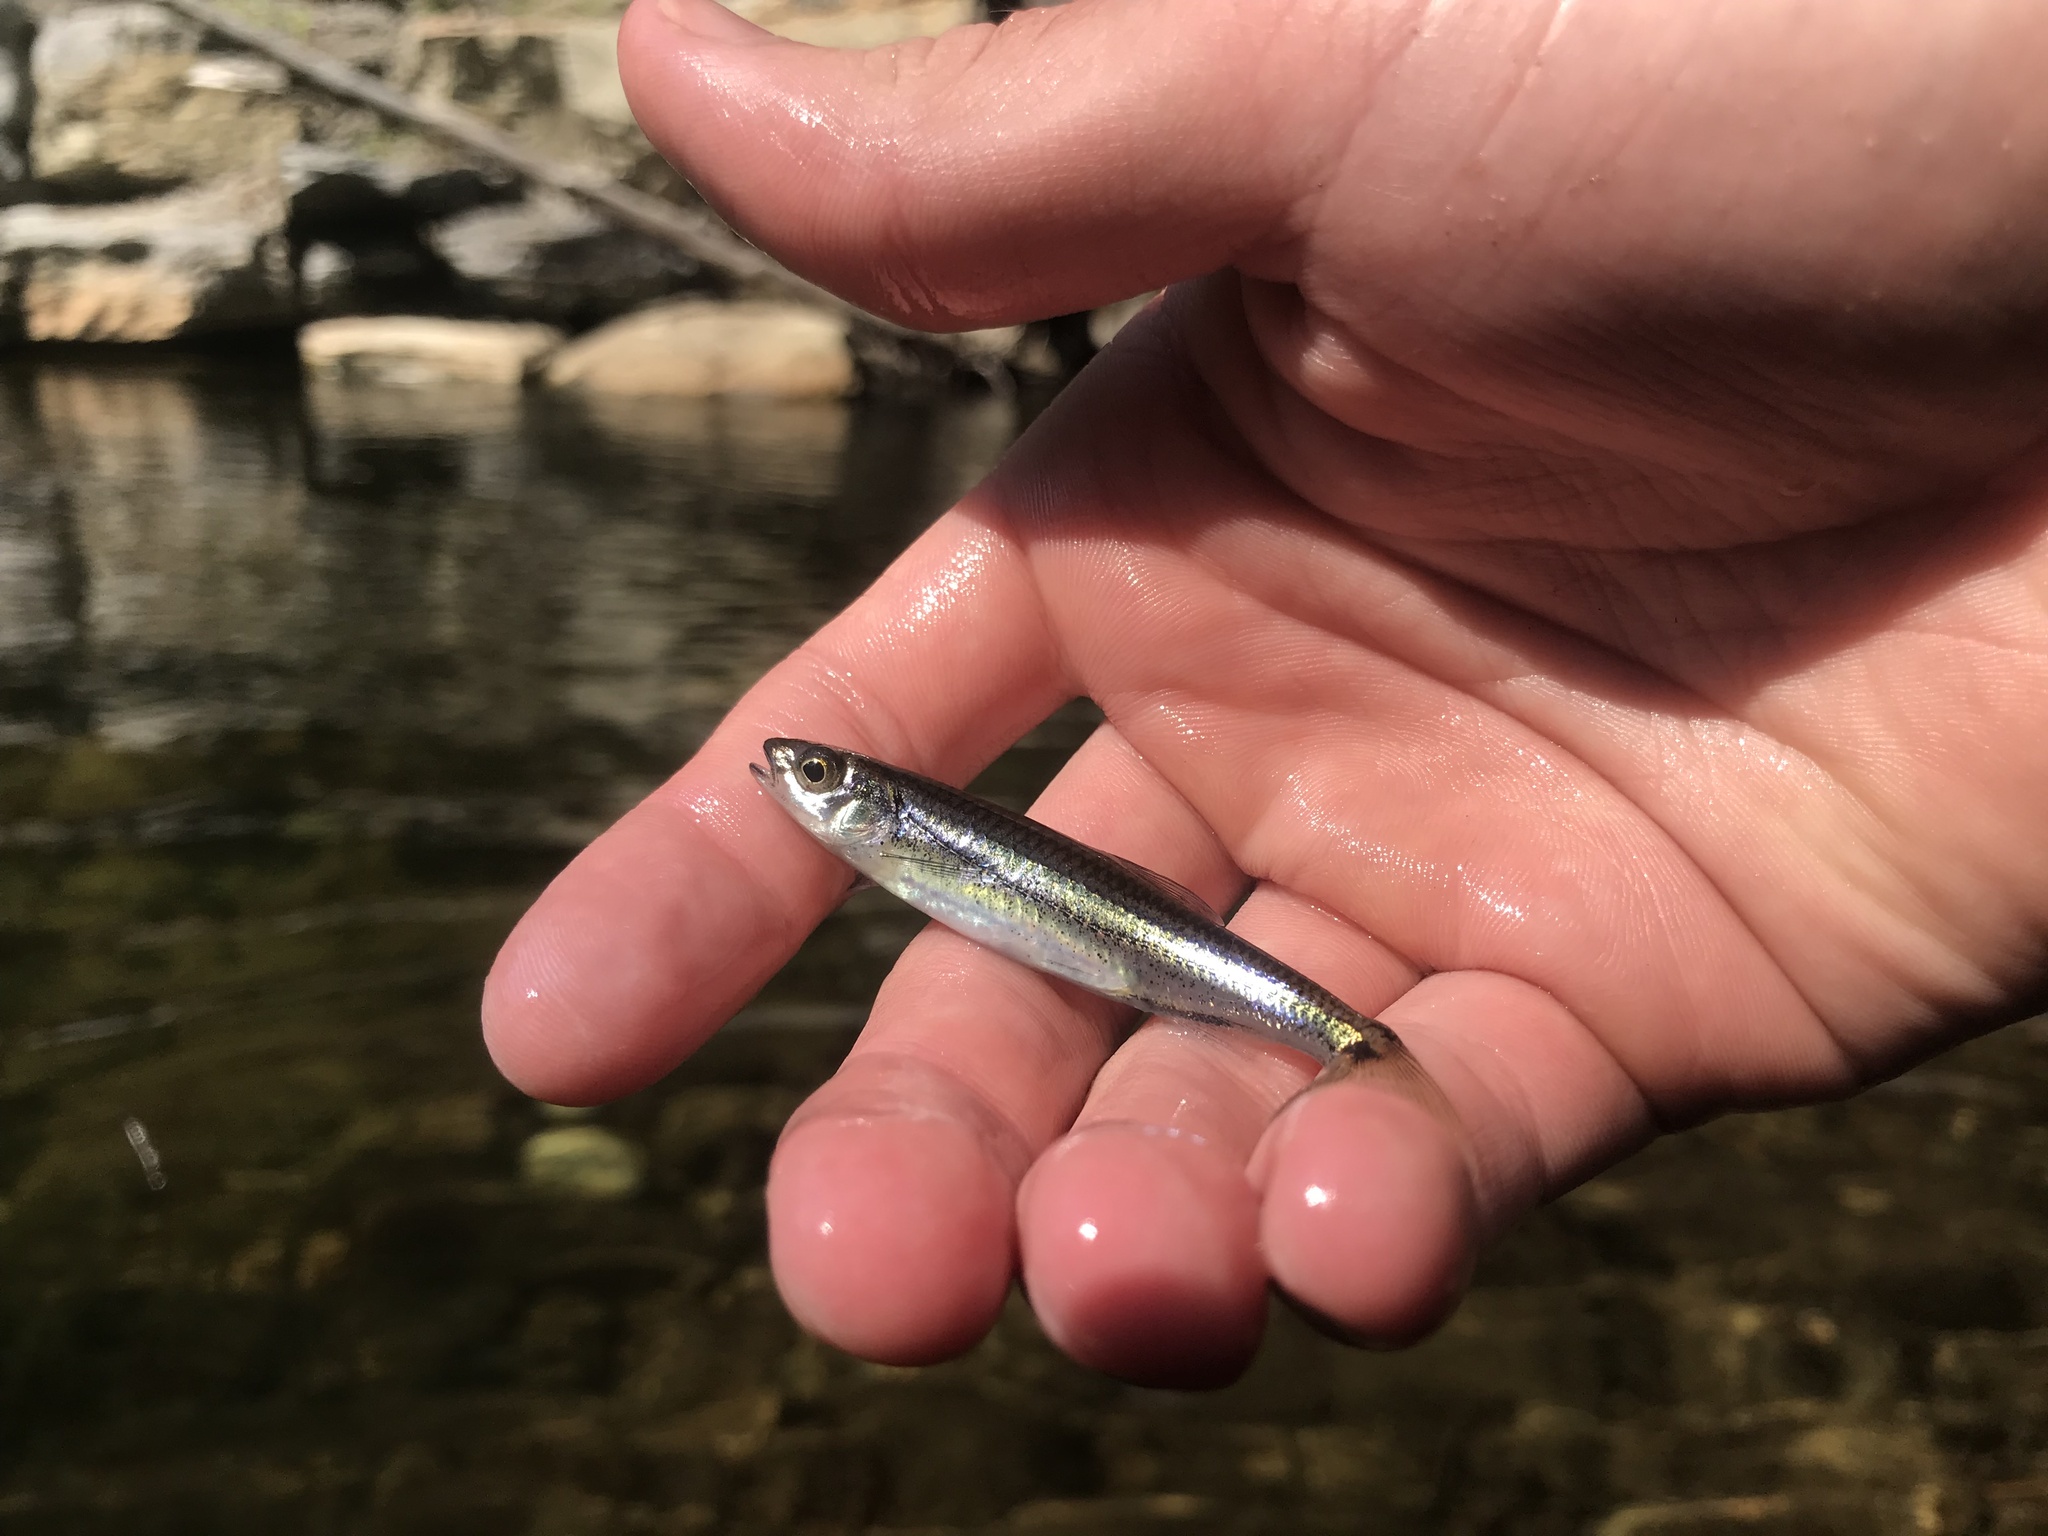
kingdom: Animalia
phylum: Chordata
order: Cypriniformes
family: Cyprinidae
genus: Notropis
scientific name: Notropis
